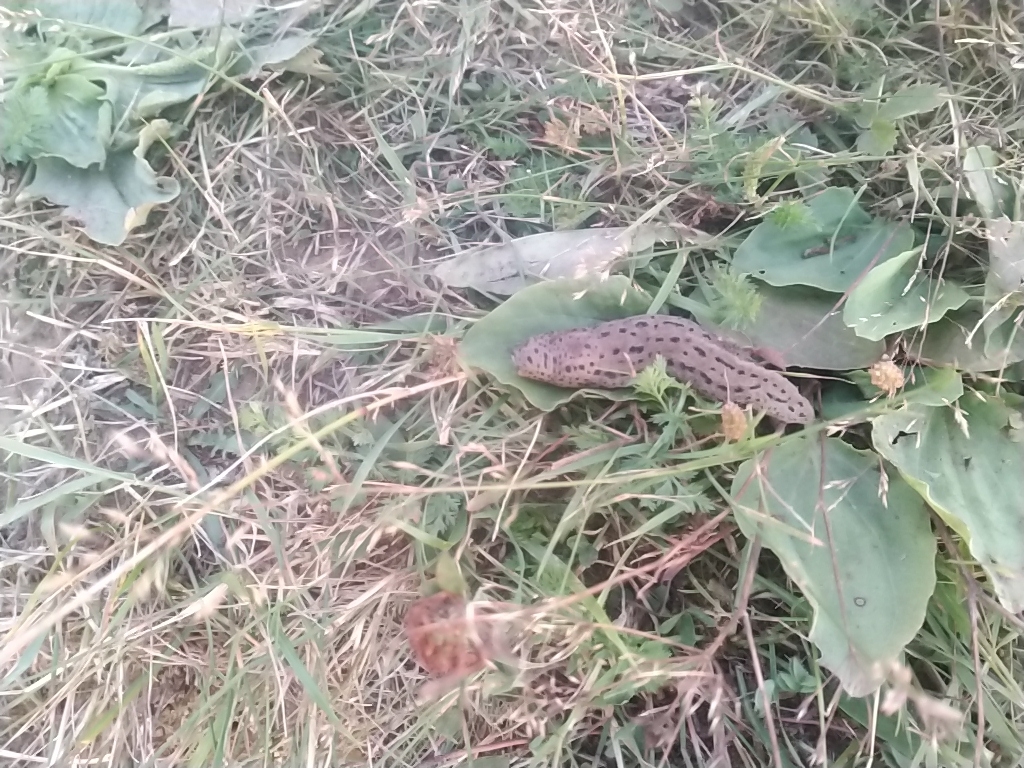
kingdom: Animalia
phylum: Mollusca
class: Gastropoda
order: Stylommatophora
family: Limacidae
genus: Limax
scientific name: Limax maximus
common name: Great grey slug
